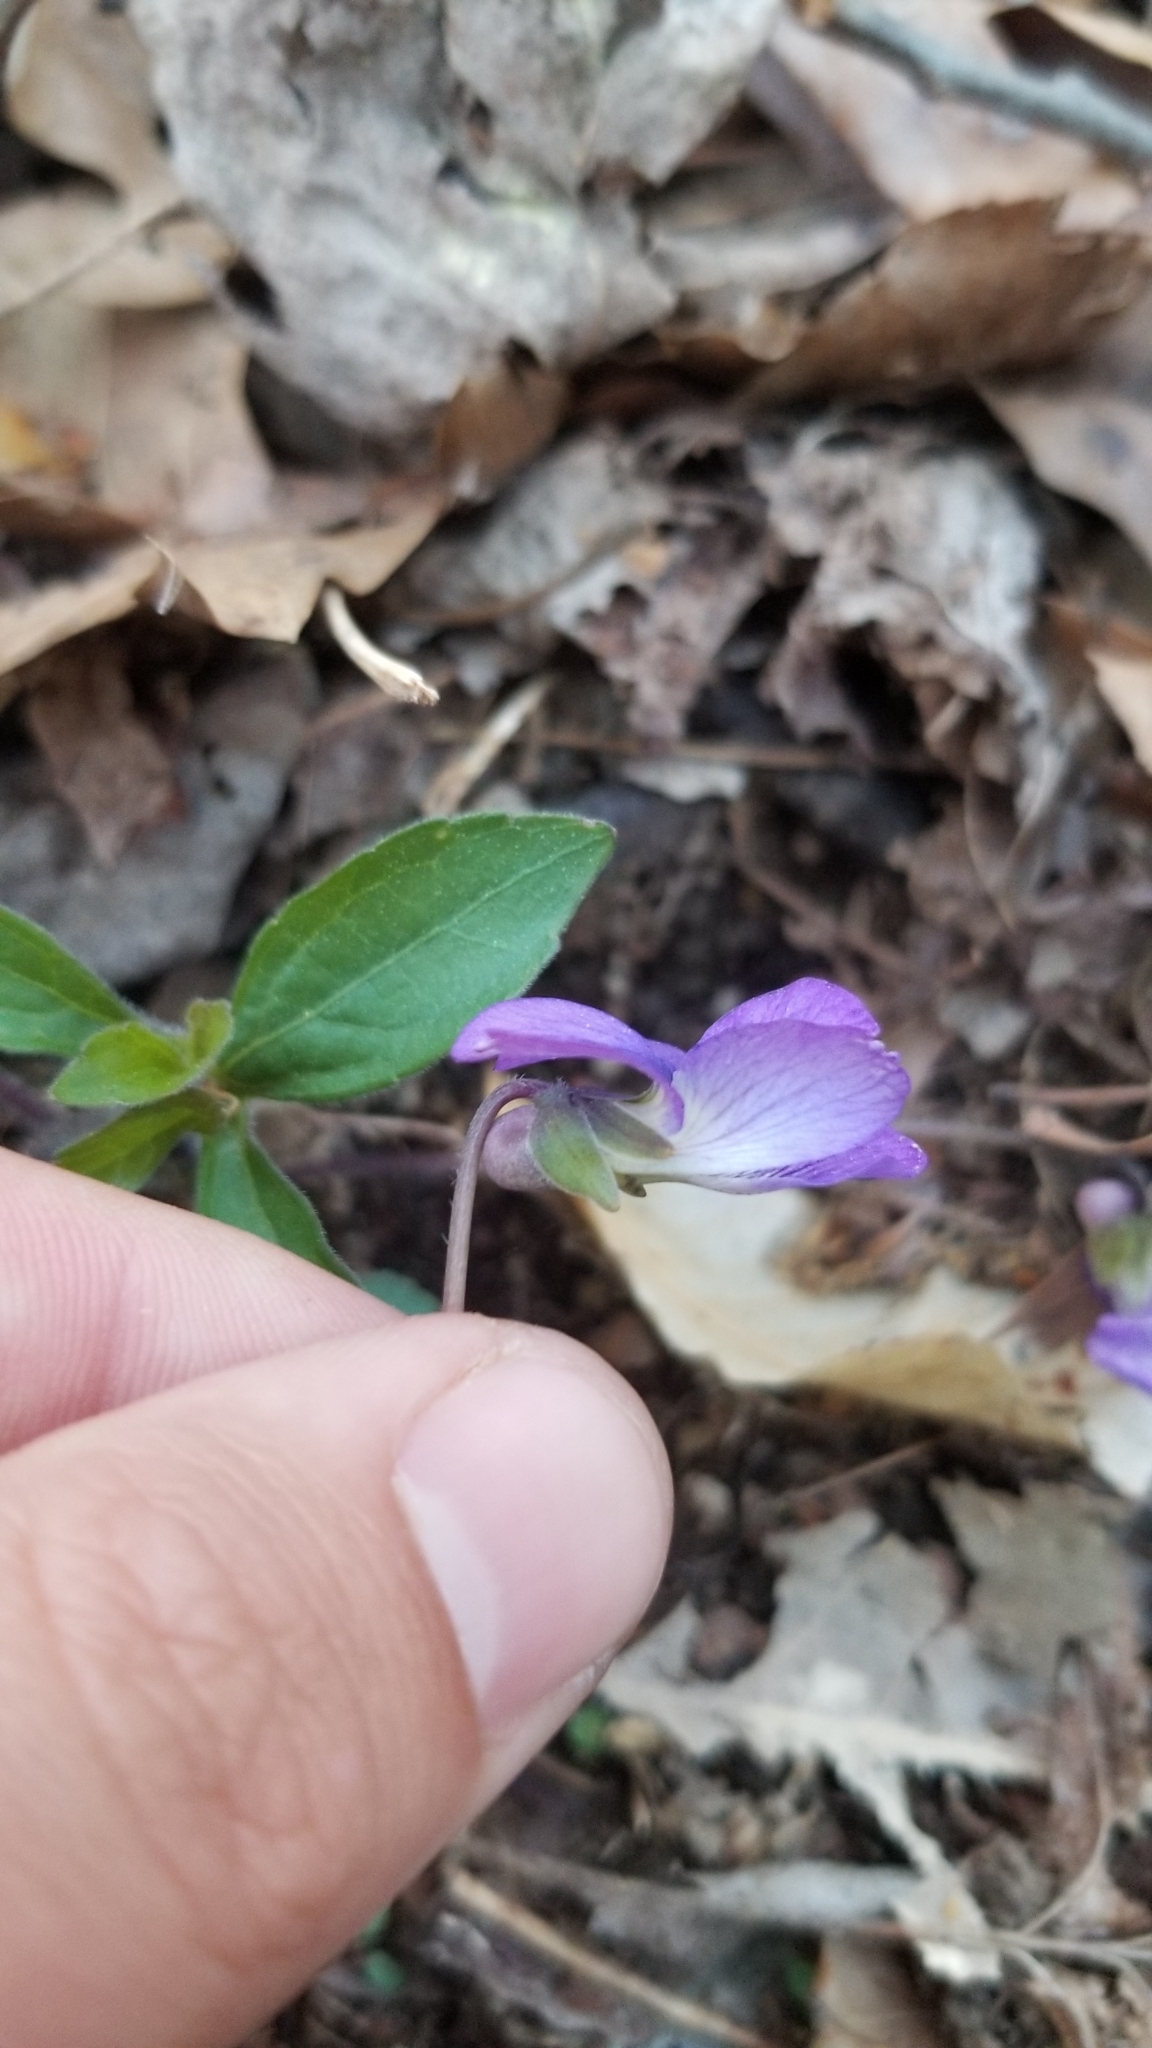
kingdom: Plantae
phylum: Tracheophyta
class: Magnoliopsida
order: Malpighiales
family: Violaceae
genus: Viola
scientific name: Viola palmata
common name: Early blue violet
